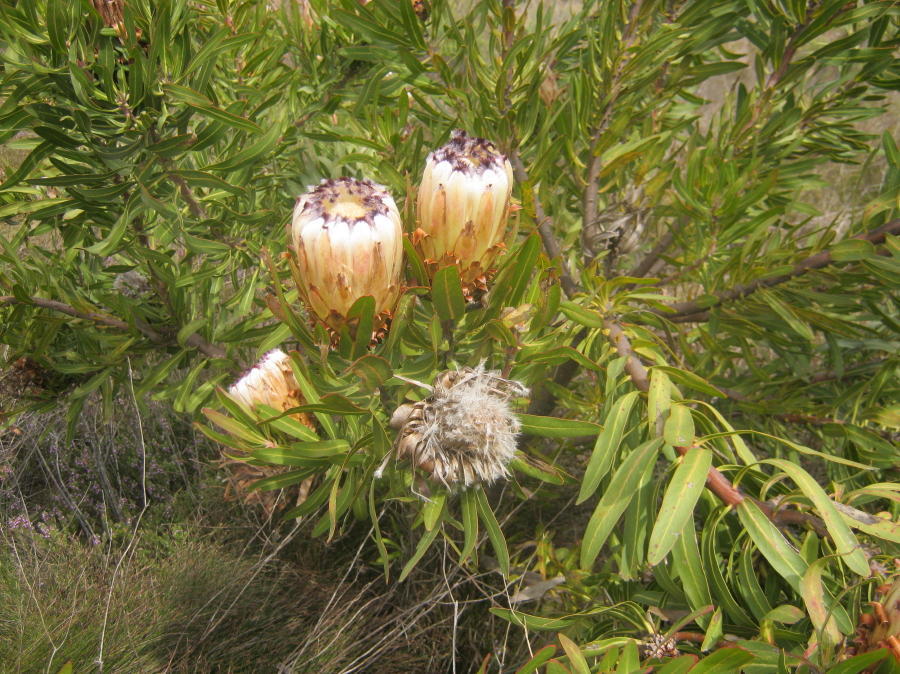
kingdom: Plantae
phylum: Tracheophyta
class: Magnoliopsida
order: Proteales
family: Proteaceae
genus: Protea
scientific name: Protea neriifolia
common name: Blue sugarbush
